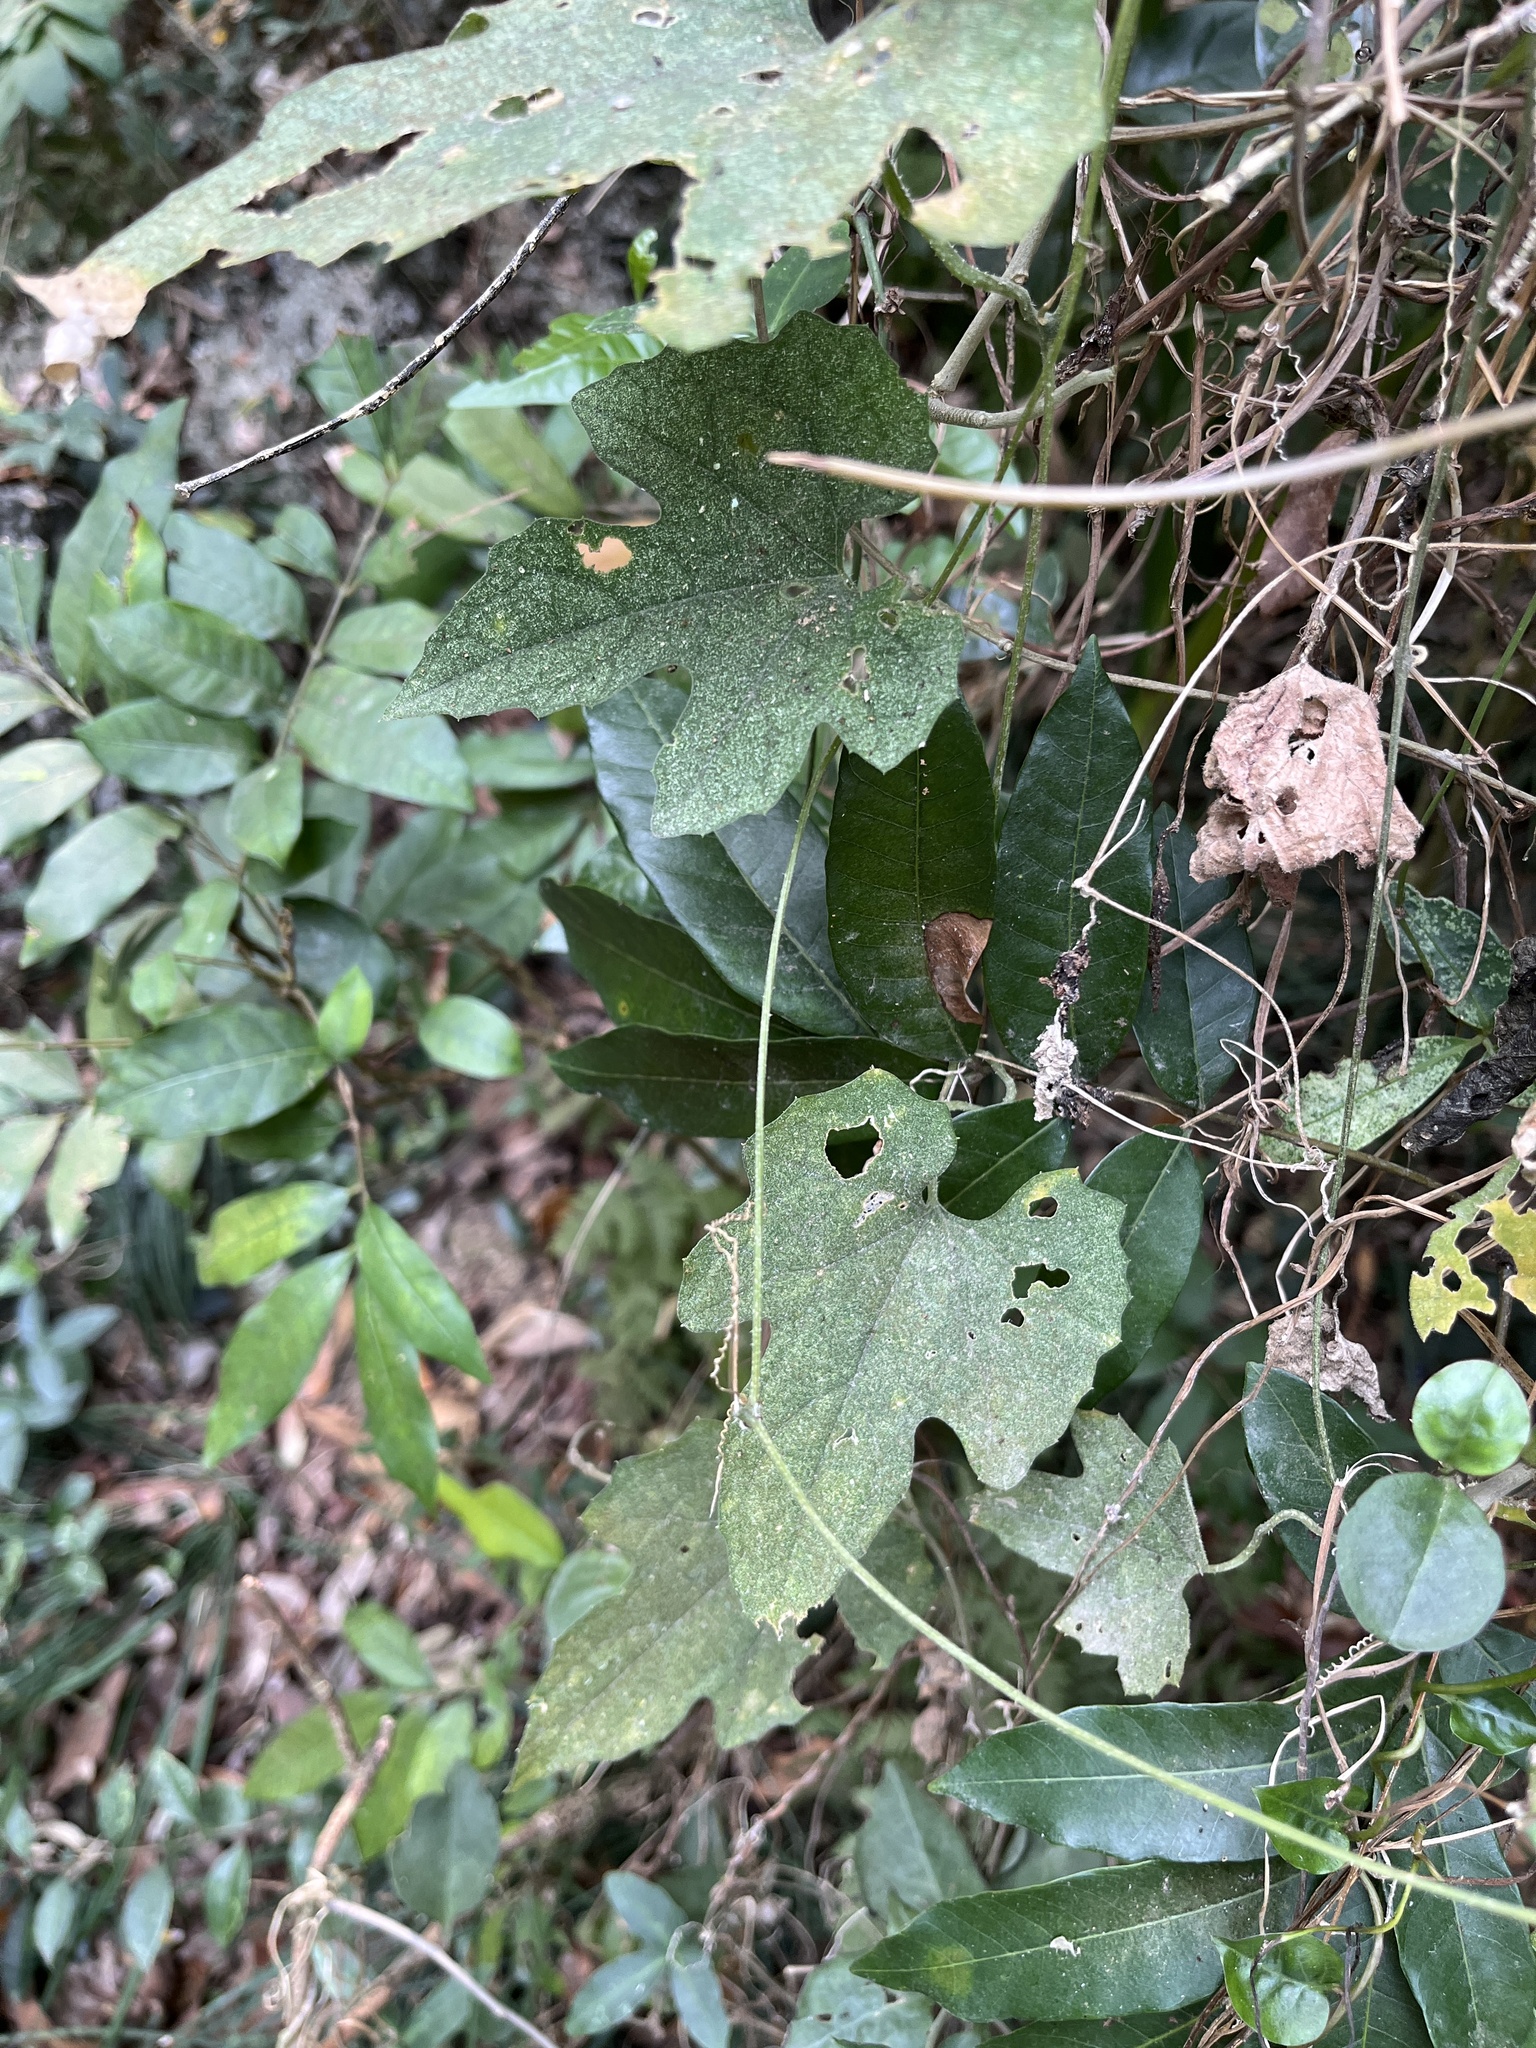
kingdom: Plantae
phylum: Tracheophyta
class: Magnoliopsida
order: Cucurbitales
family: Cucurbitaceae
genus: Trichosanthes
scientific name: Trichosanthes cucumeroides
